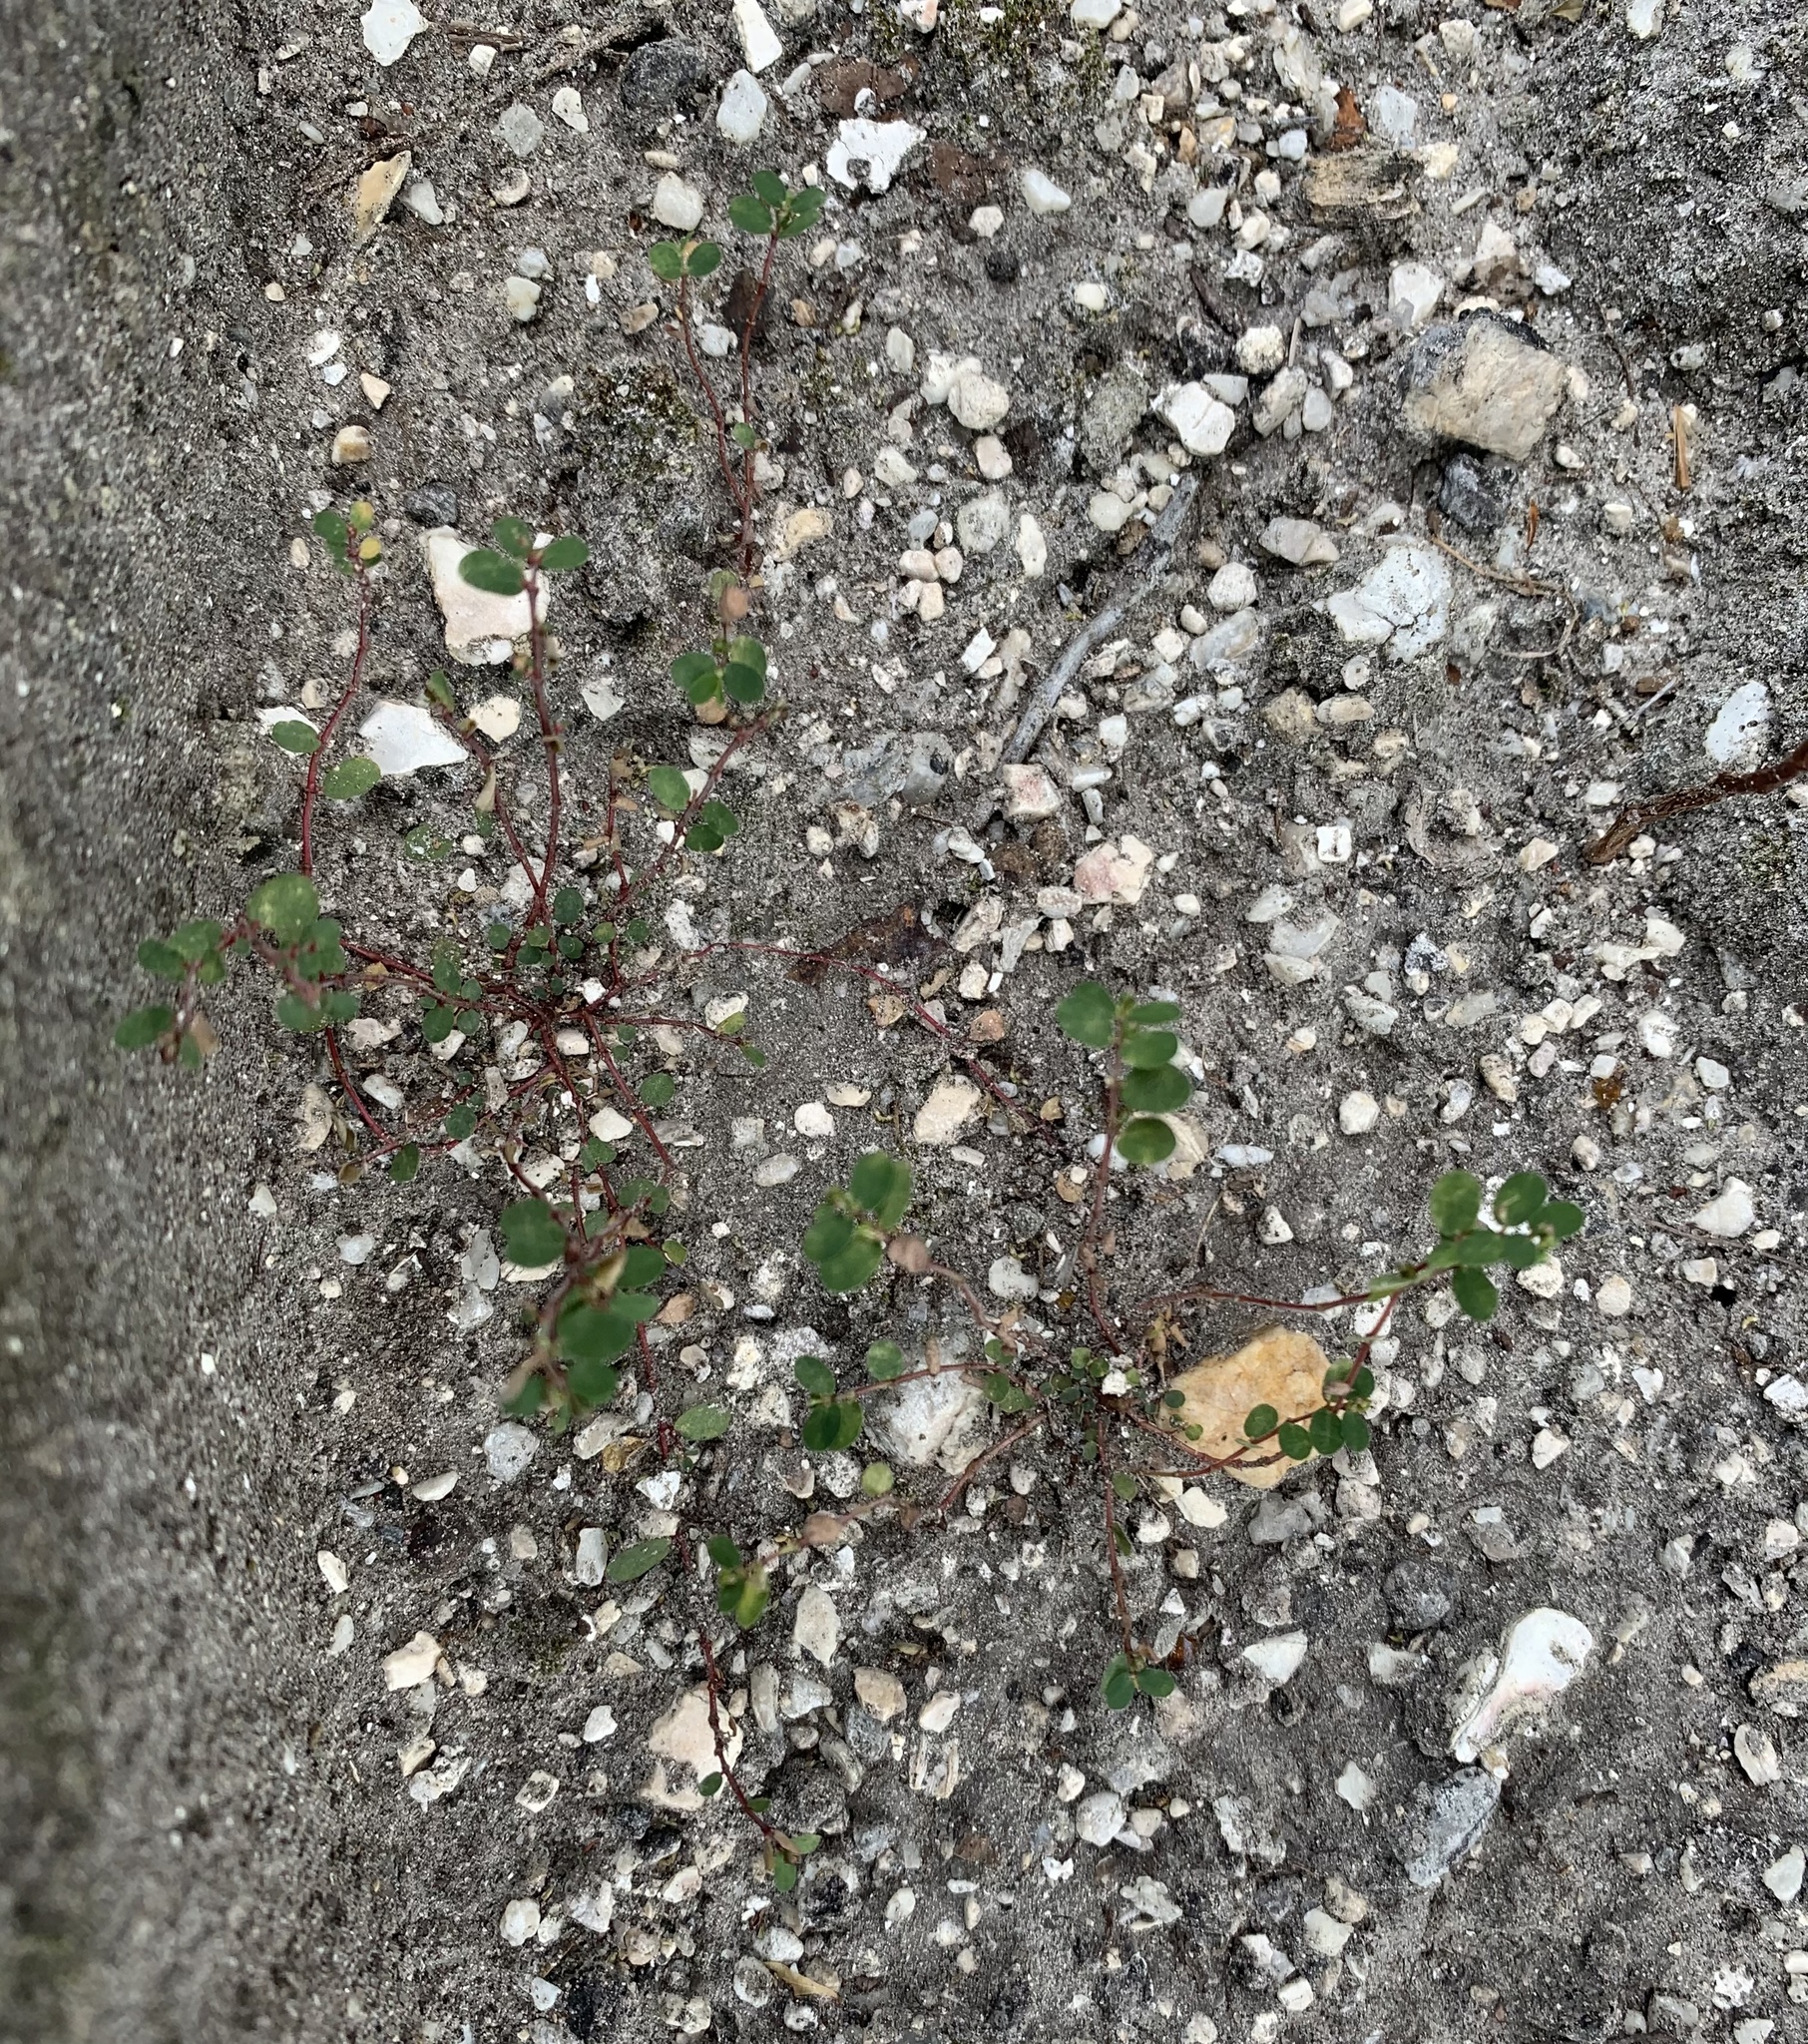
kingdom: Plantae
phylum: Tracheophyta
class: Magnoliopsida
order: Malpighiales
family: Euphorbiaceae
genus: Euphorbia
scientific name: Euphorbia prostrata
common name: Prostrate sandmat
